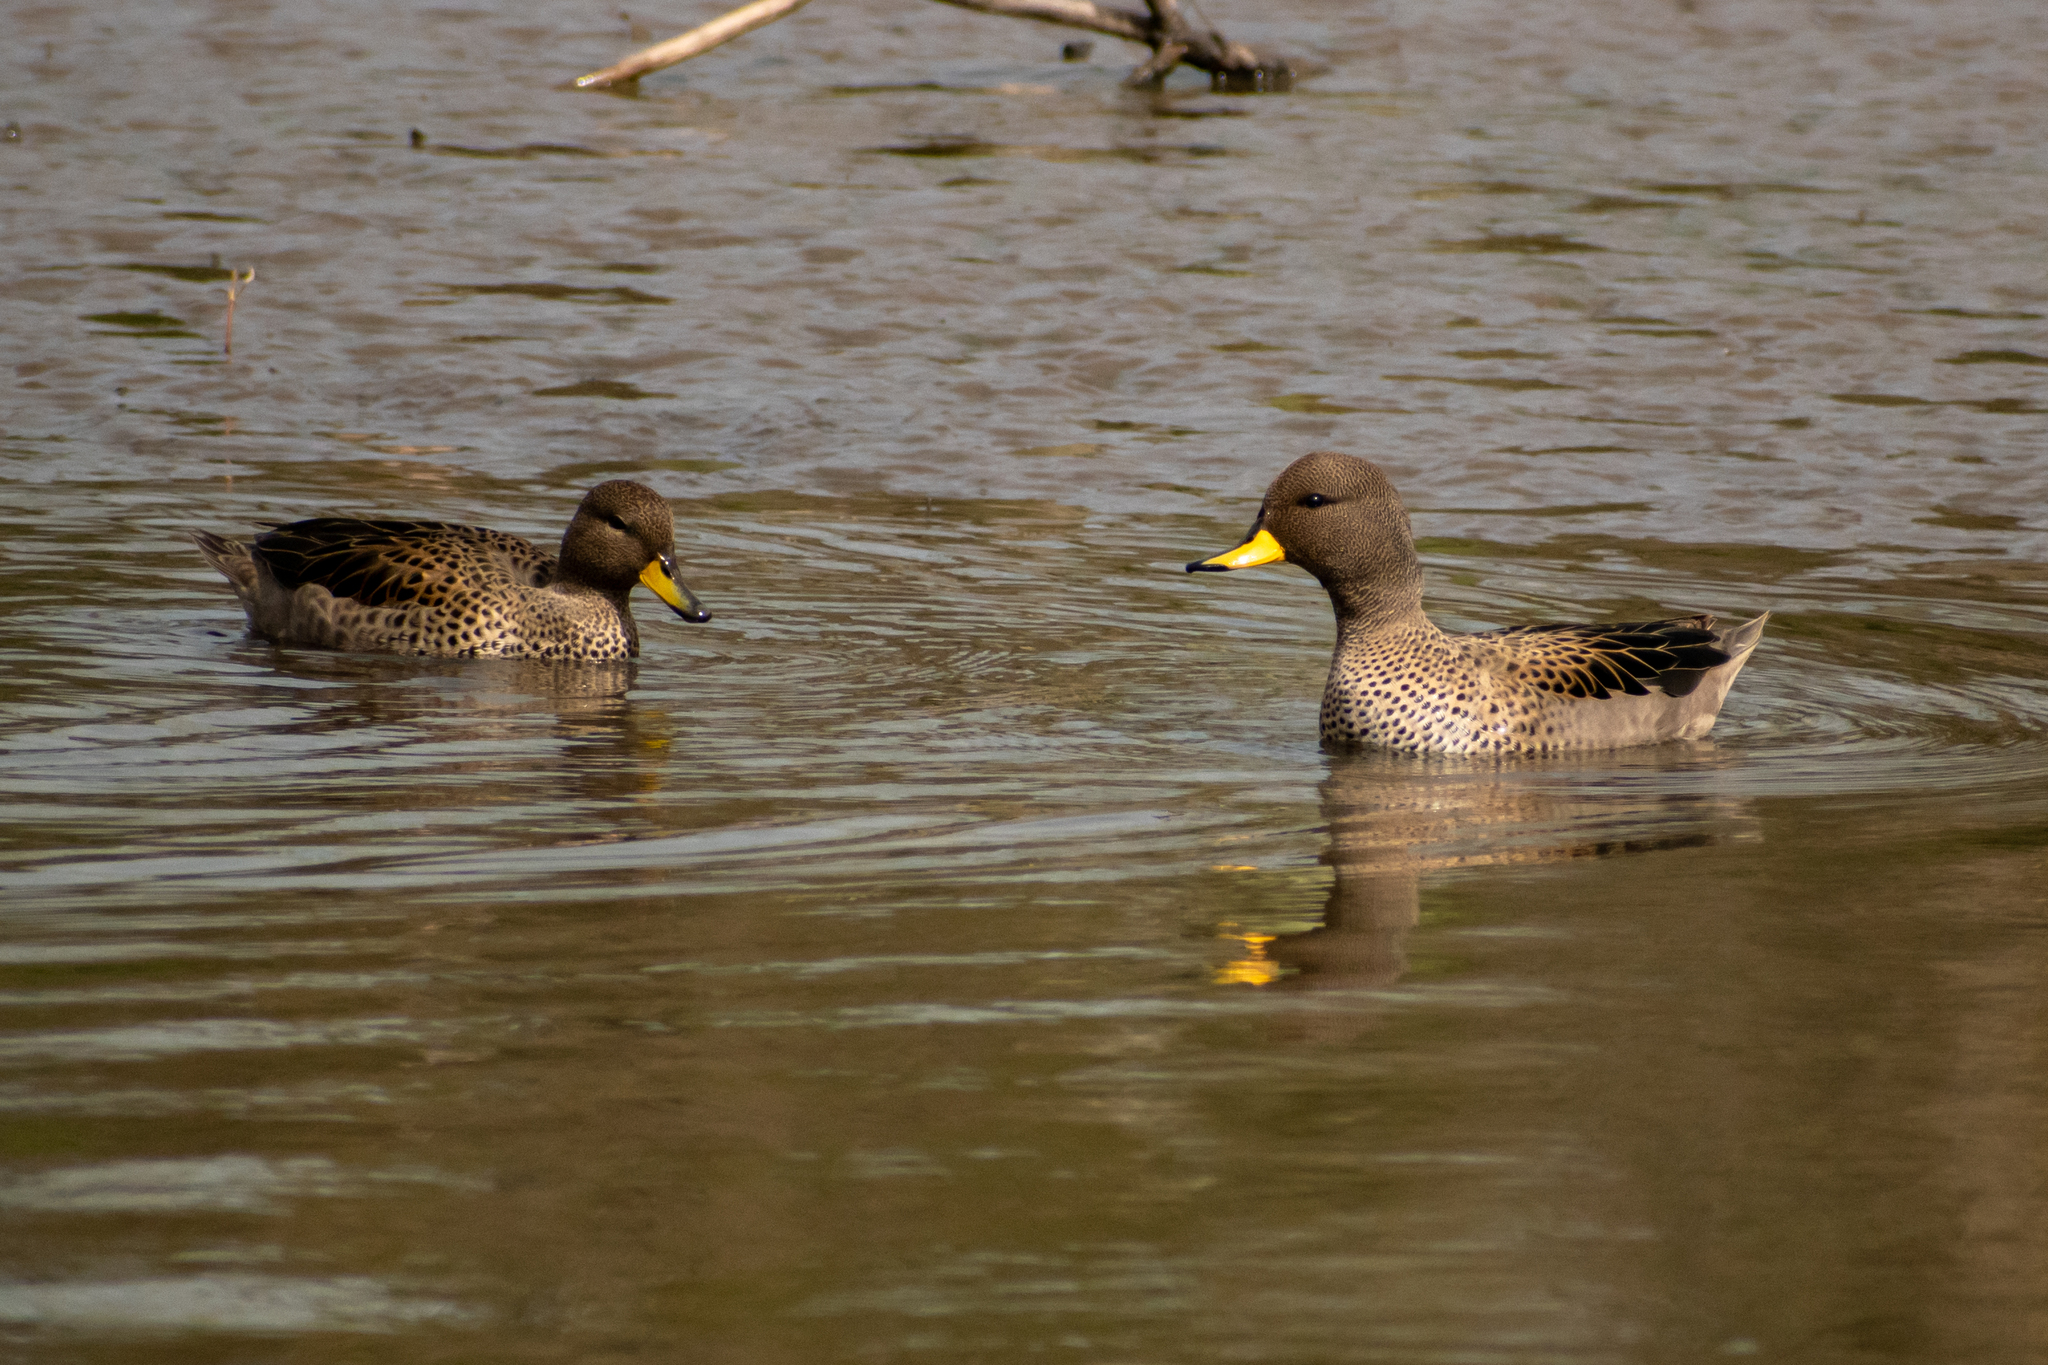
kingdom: Animalia
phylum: Chordata
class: Aves
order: Anseriformes
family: Anatidae
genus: Anas
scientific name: Anas flavirostris
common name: Yellow-billed teal
